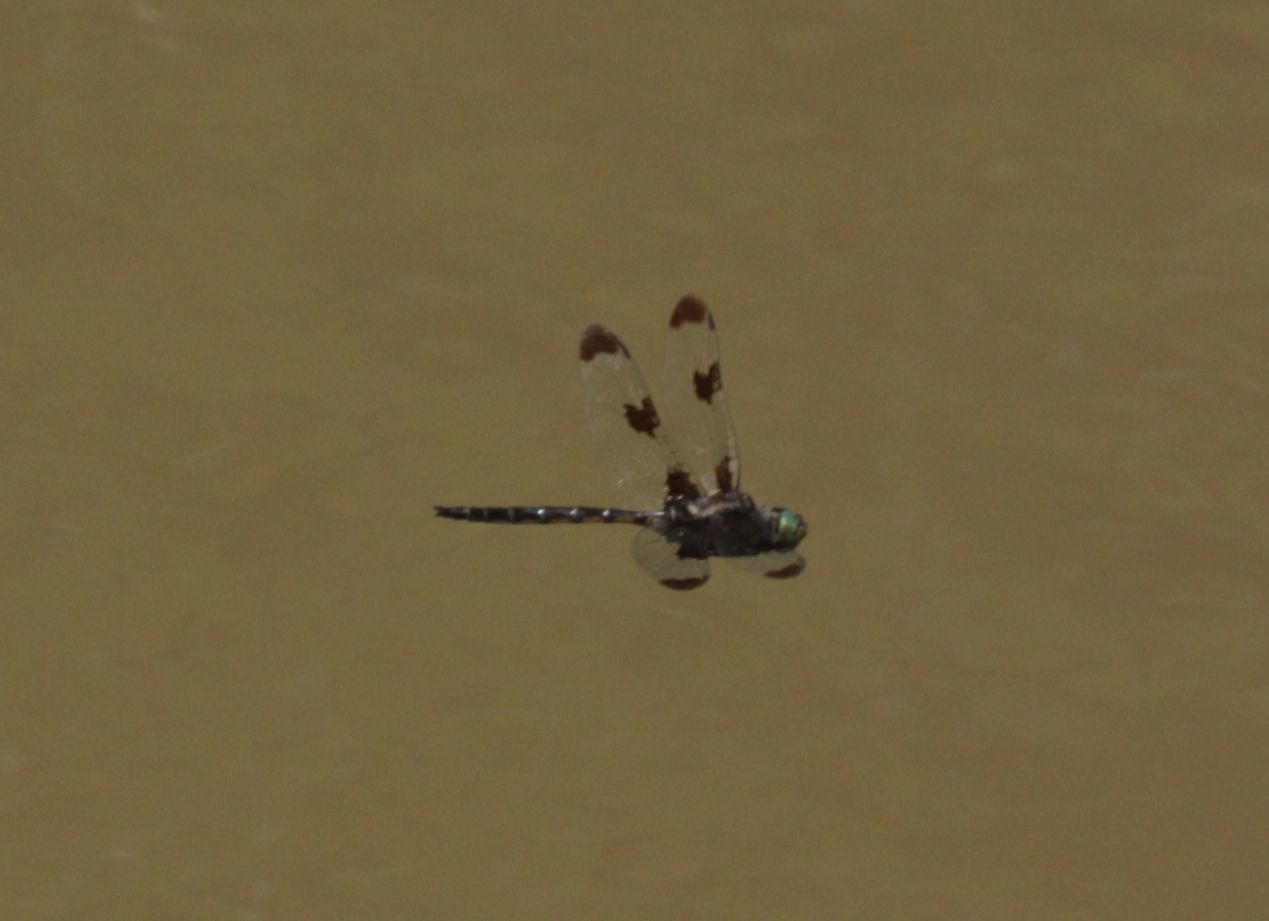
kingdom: Animalia
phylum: Arthropoda
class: Insecta
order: Odonata
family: Corduliidae
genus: Epitheca
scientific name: Epitheca princeps
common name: Prince baskettail
